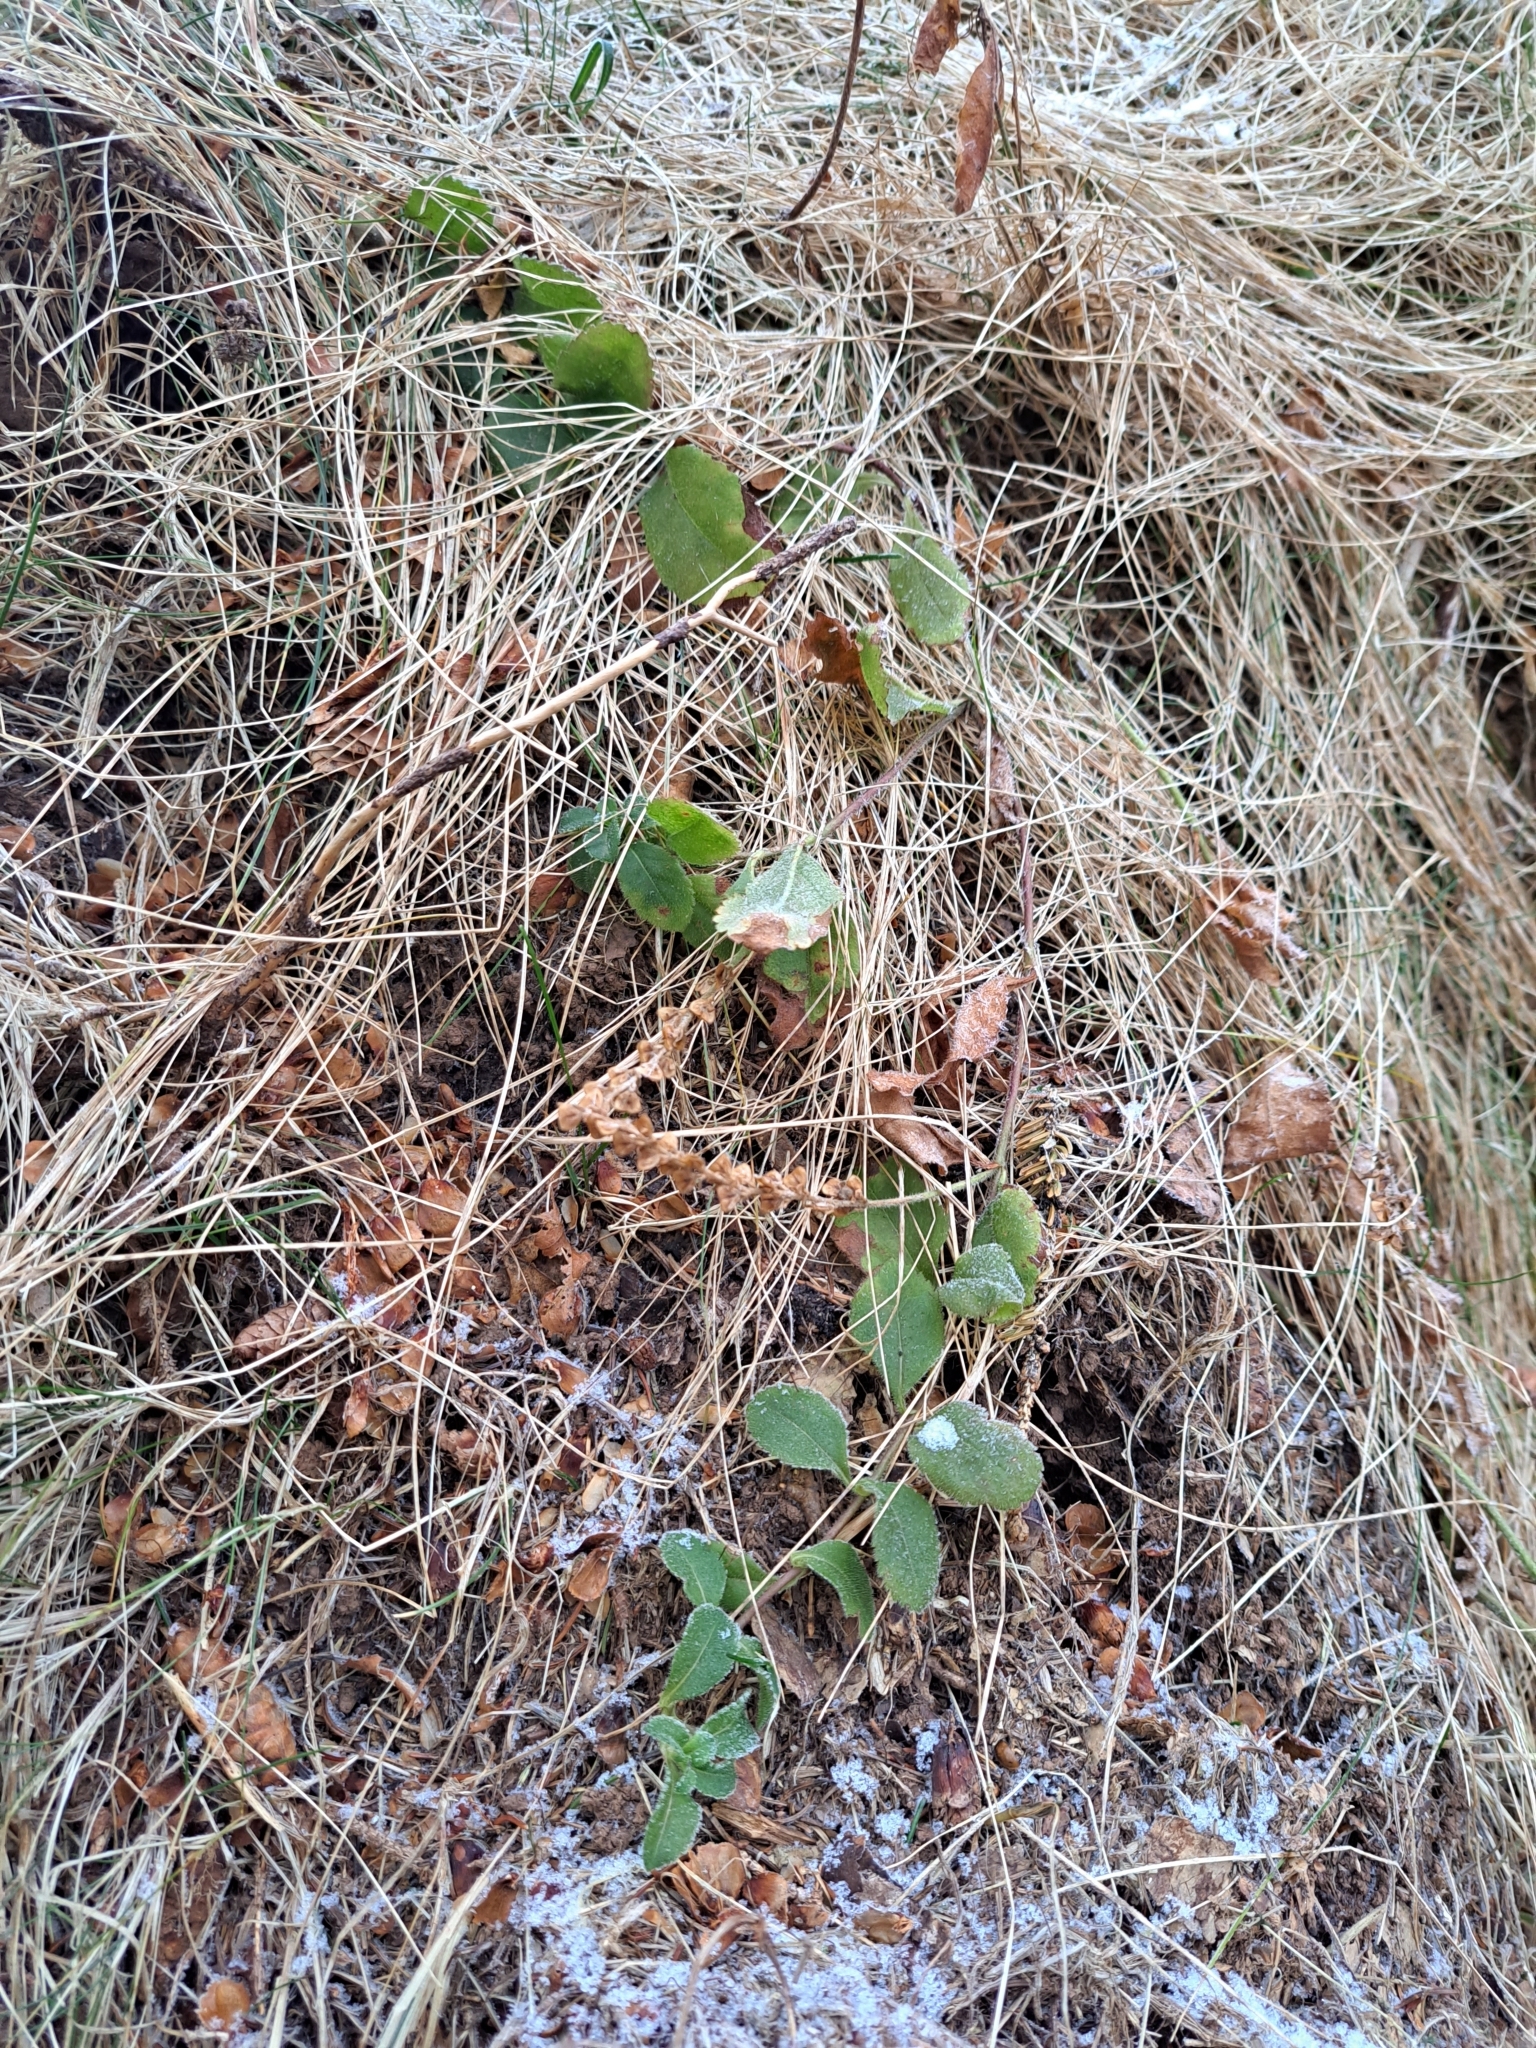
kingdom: Plantae
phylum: Tracheophyta
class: Magnoliopsida
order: Lamiales
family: Plantaginaceae
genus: Veronica
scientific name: Veronica officinalis
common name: Common speedwell
